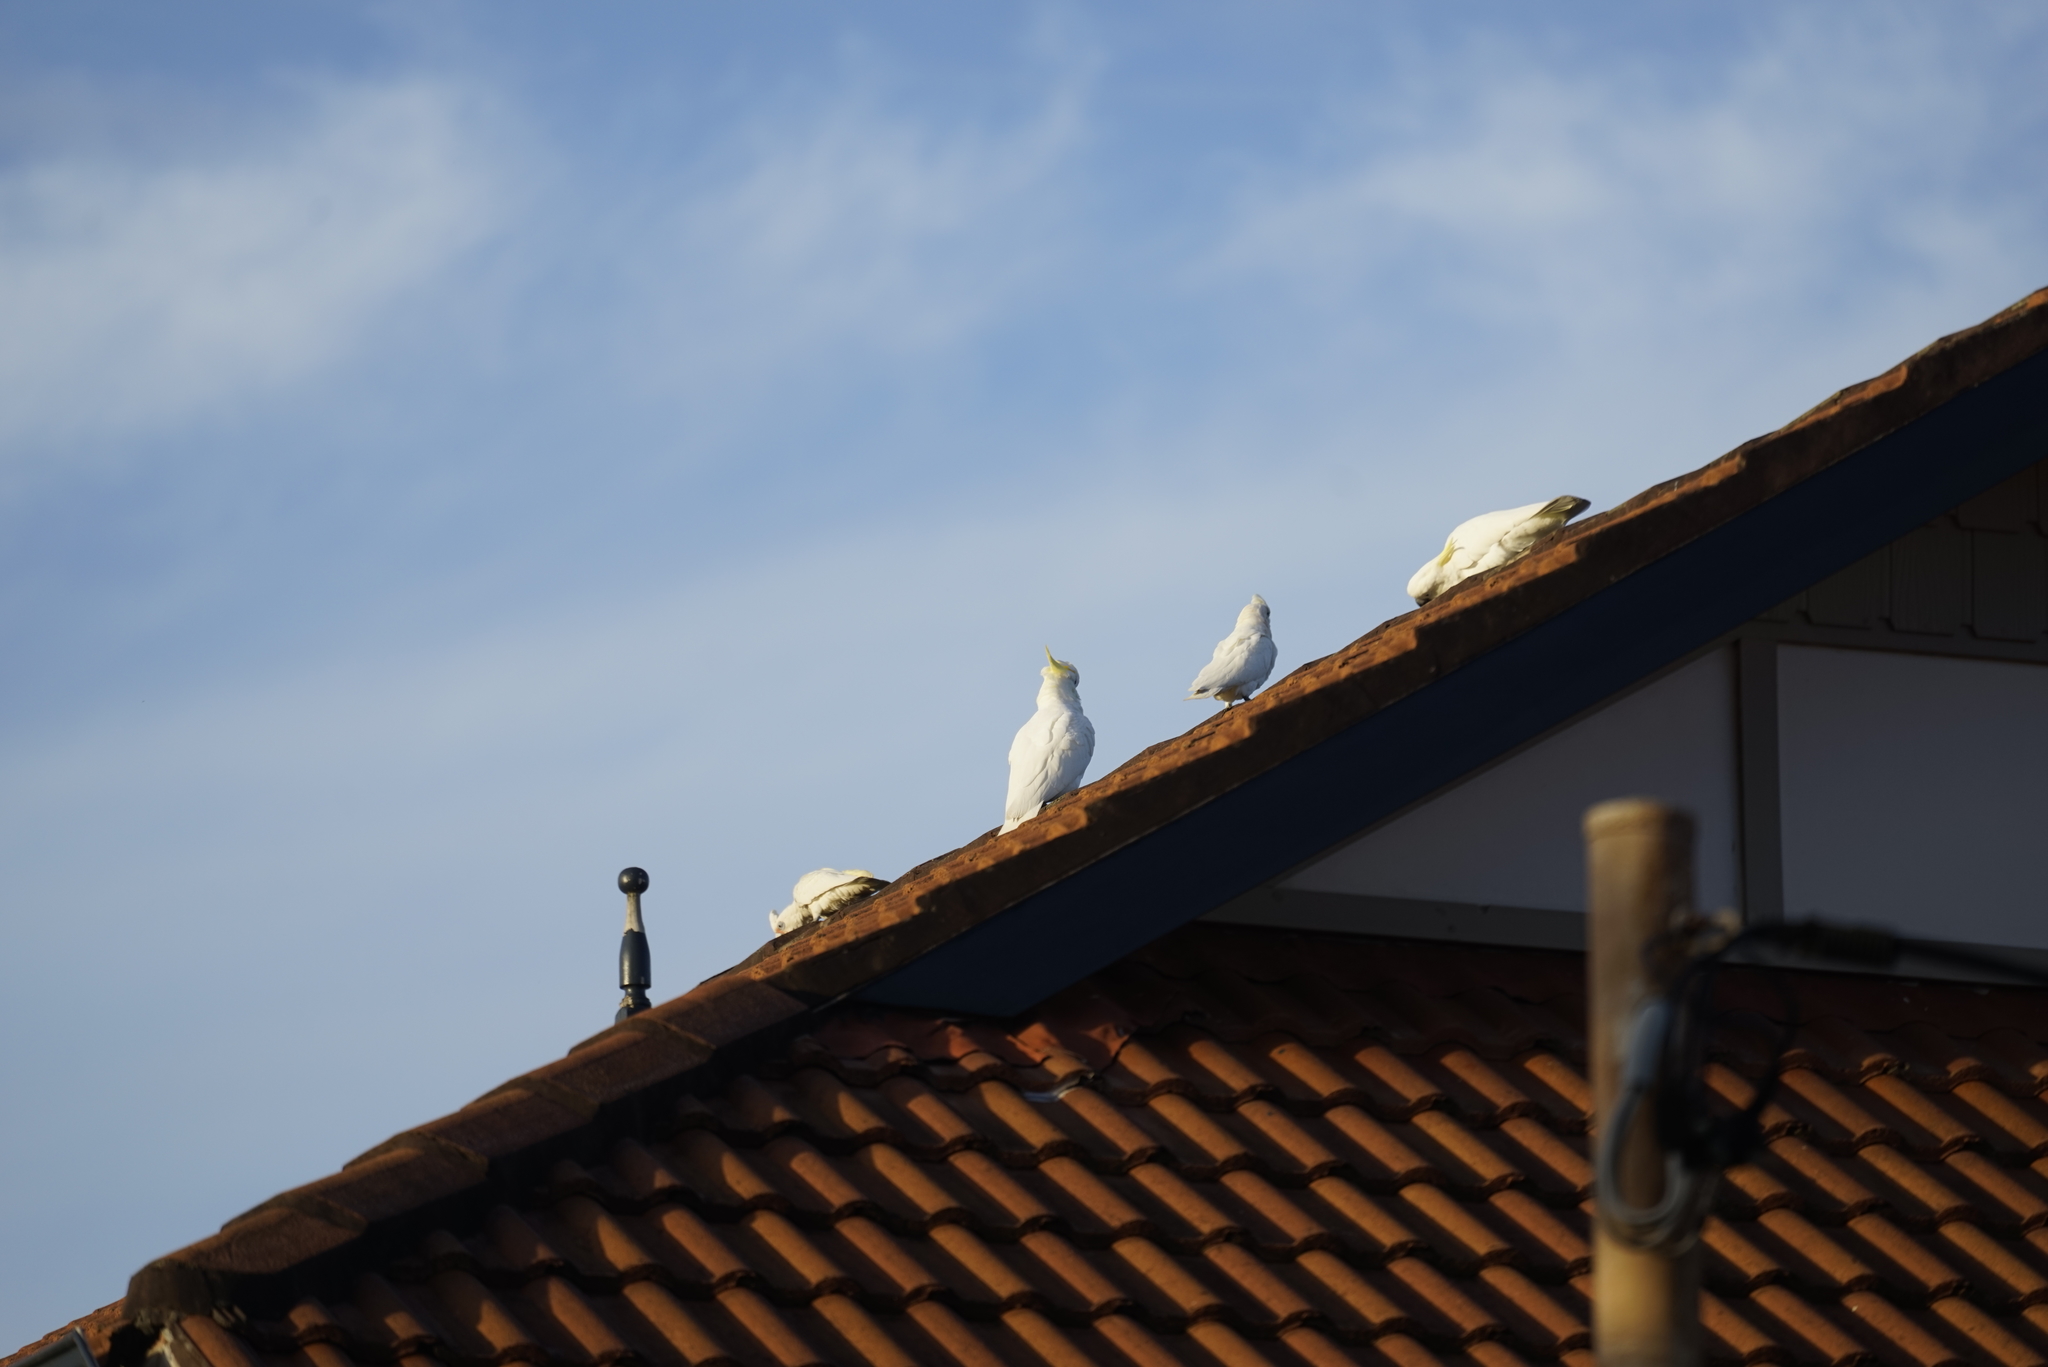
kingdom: Animalia
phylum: Chordata
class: Aves
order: Psittaciformes
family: Psittacidae
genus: Cacatua
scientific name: Cacatua sanguinea
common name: Little corella
